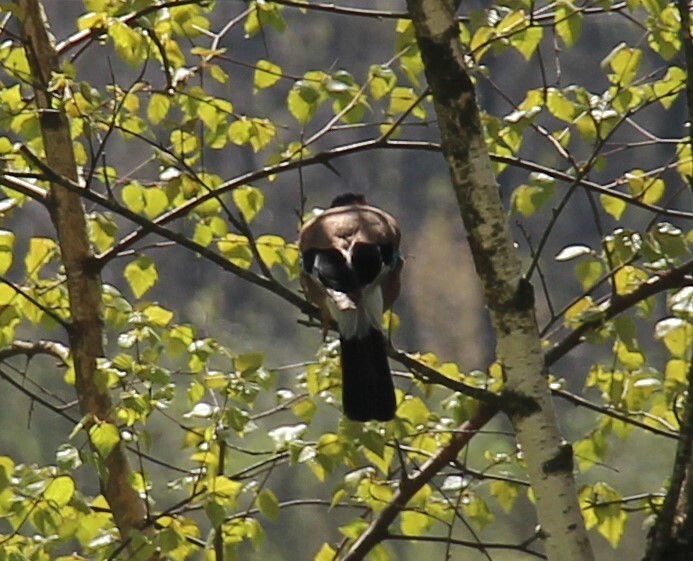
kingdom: Animalia
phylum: Chordata
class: Aves
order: Passeriformes
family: Corvidae
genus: Garrulus
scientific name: Garrulus glandarius
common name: Eurasian jay
